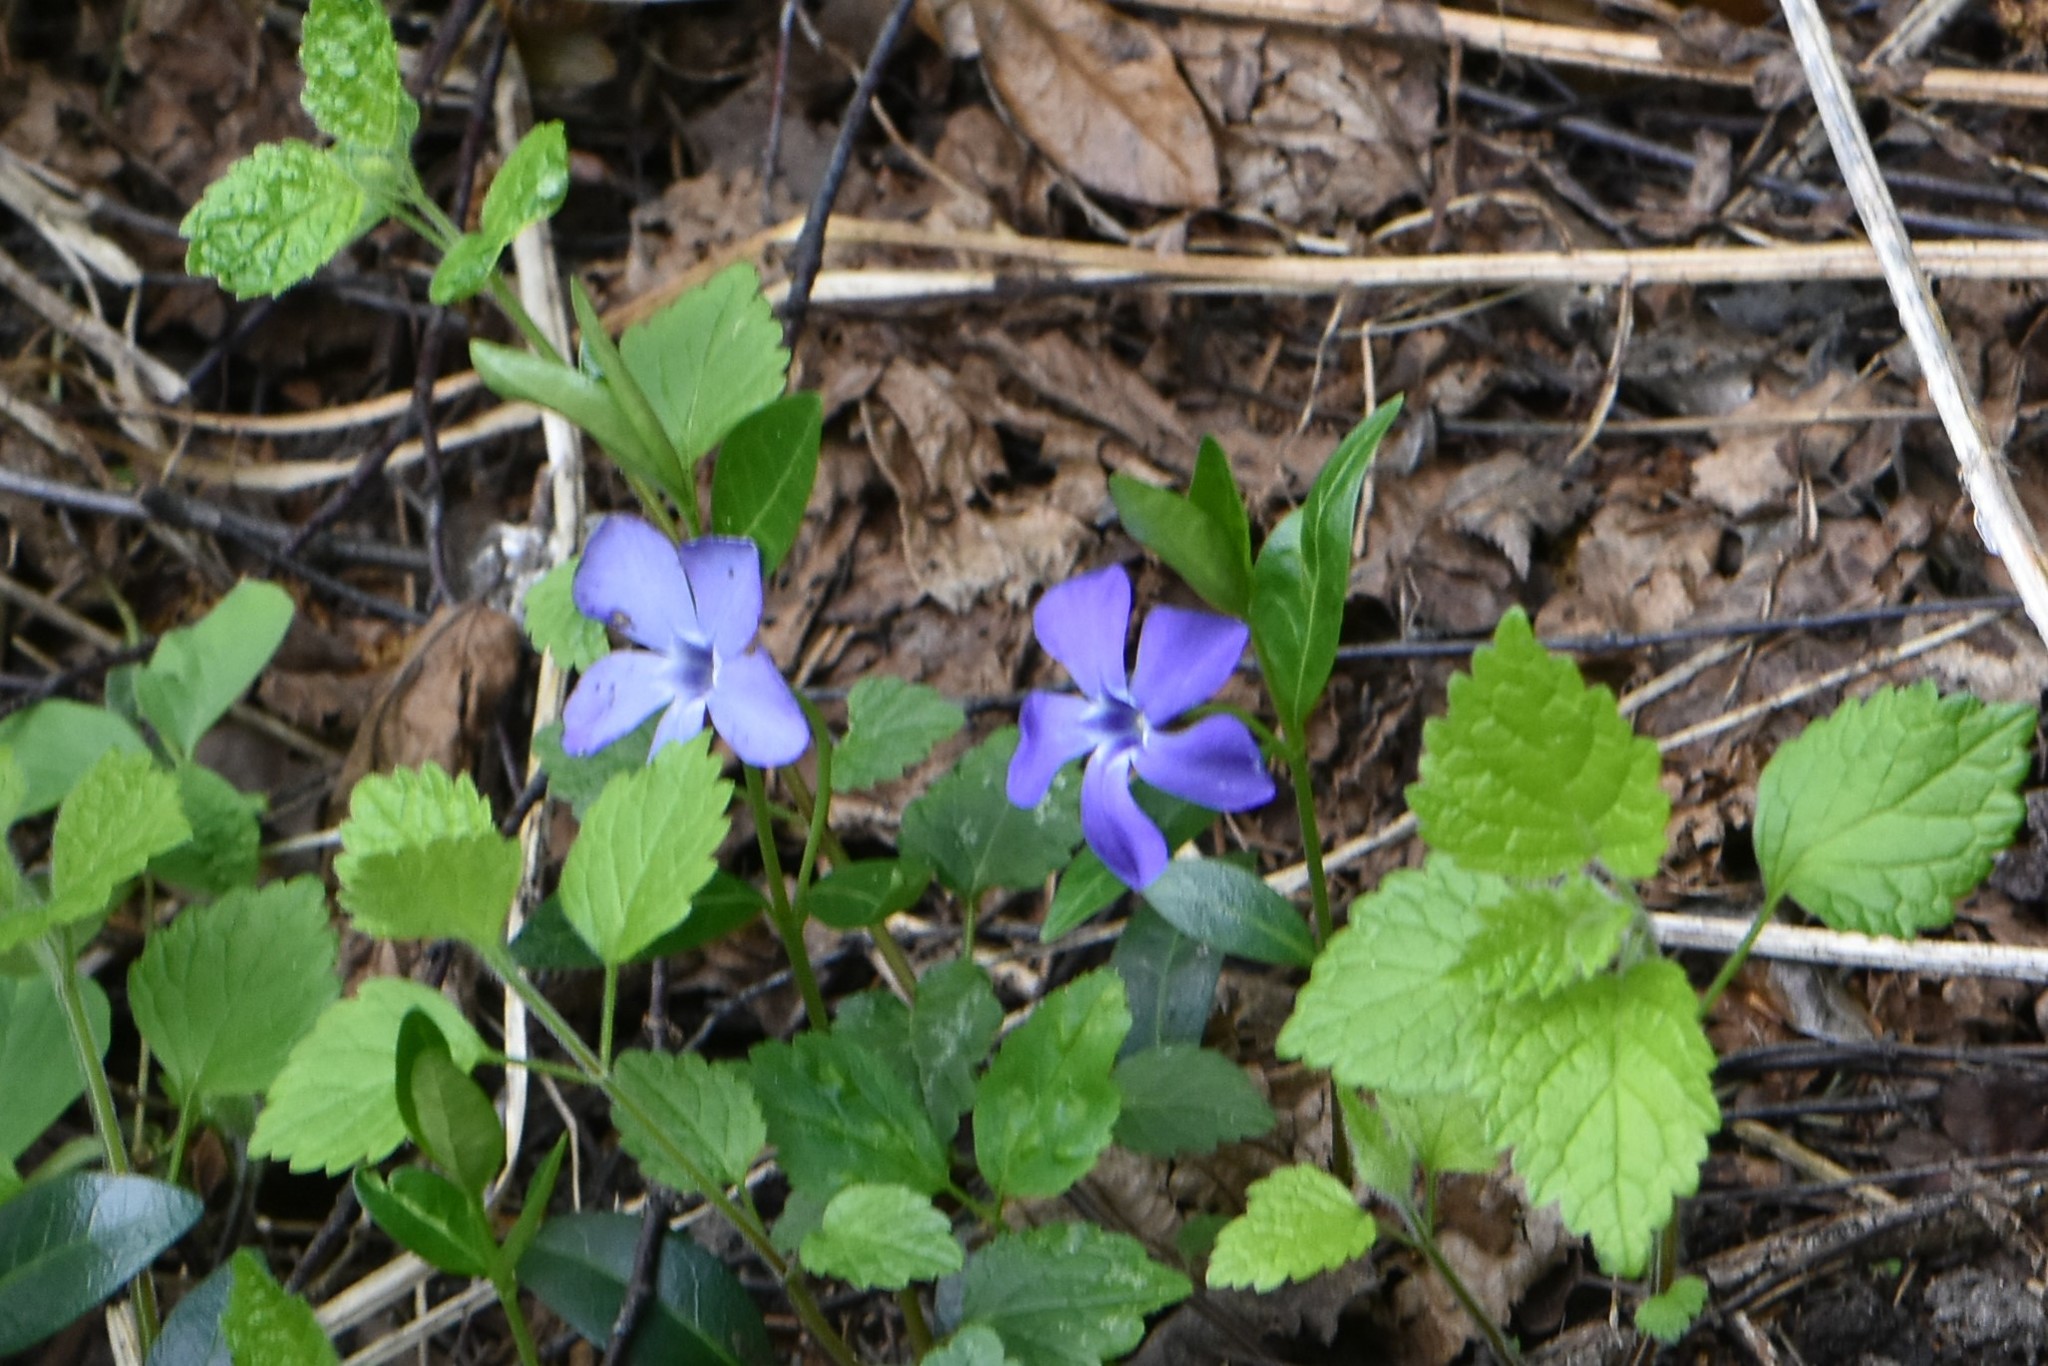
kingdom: Plantae
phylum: Tracheophyta
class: Magnoliopsida
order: Gentianales
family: Apocynaceae
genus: Vinca
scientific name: Vinca minor
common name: Lesser periwinkle
